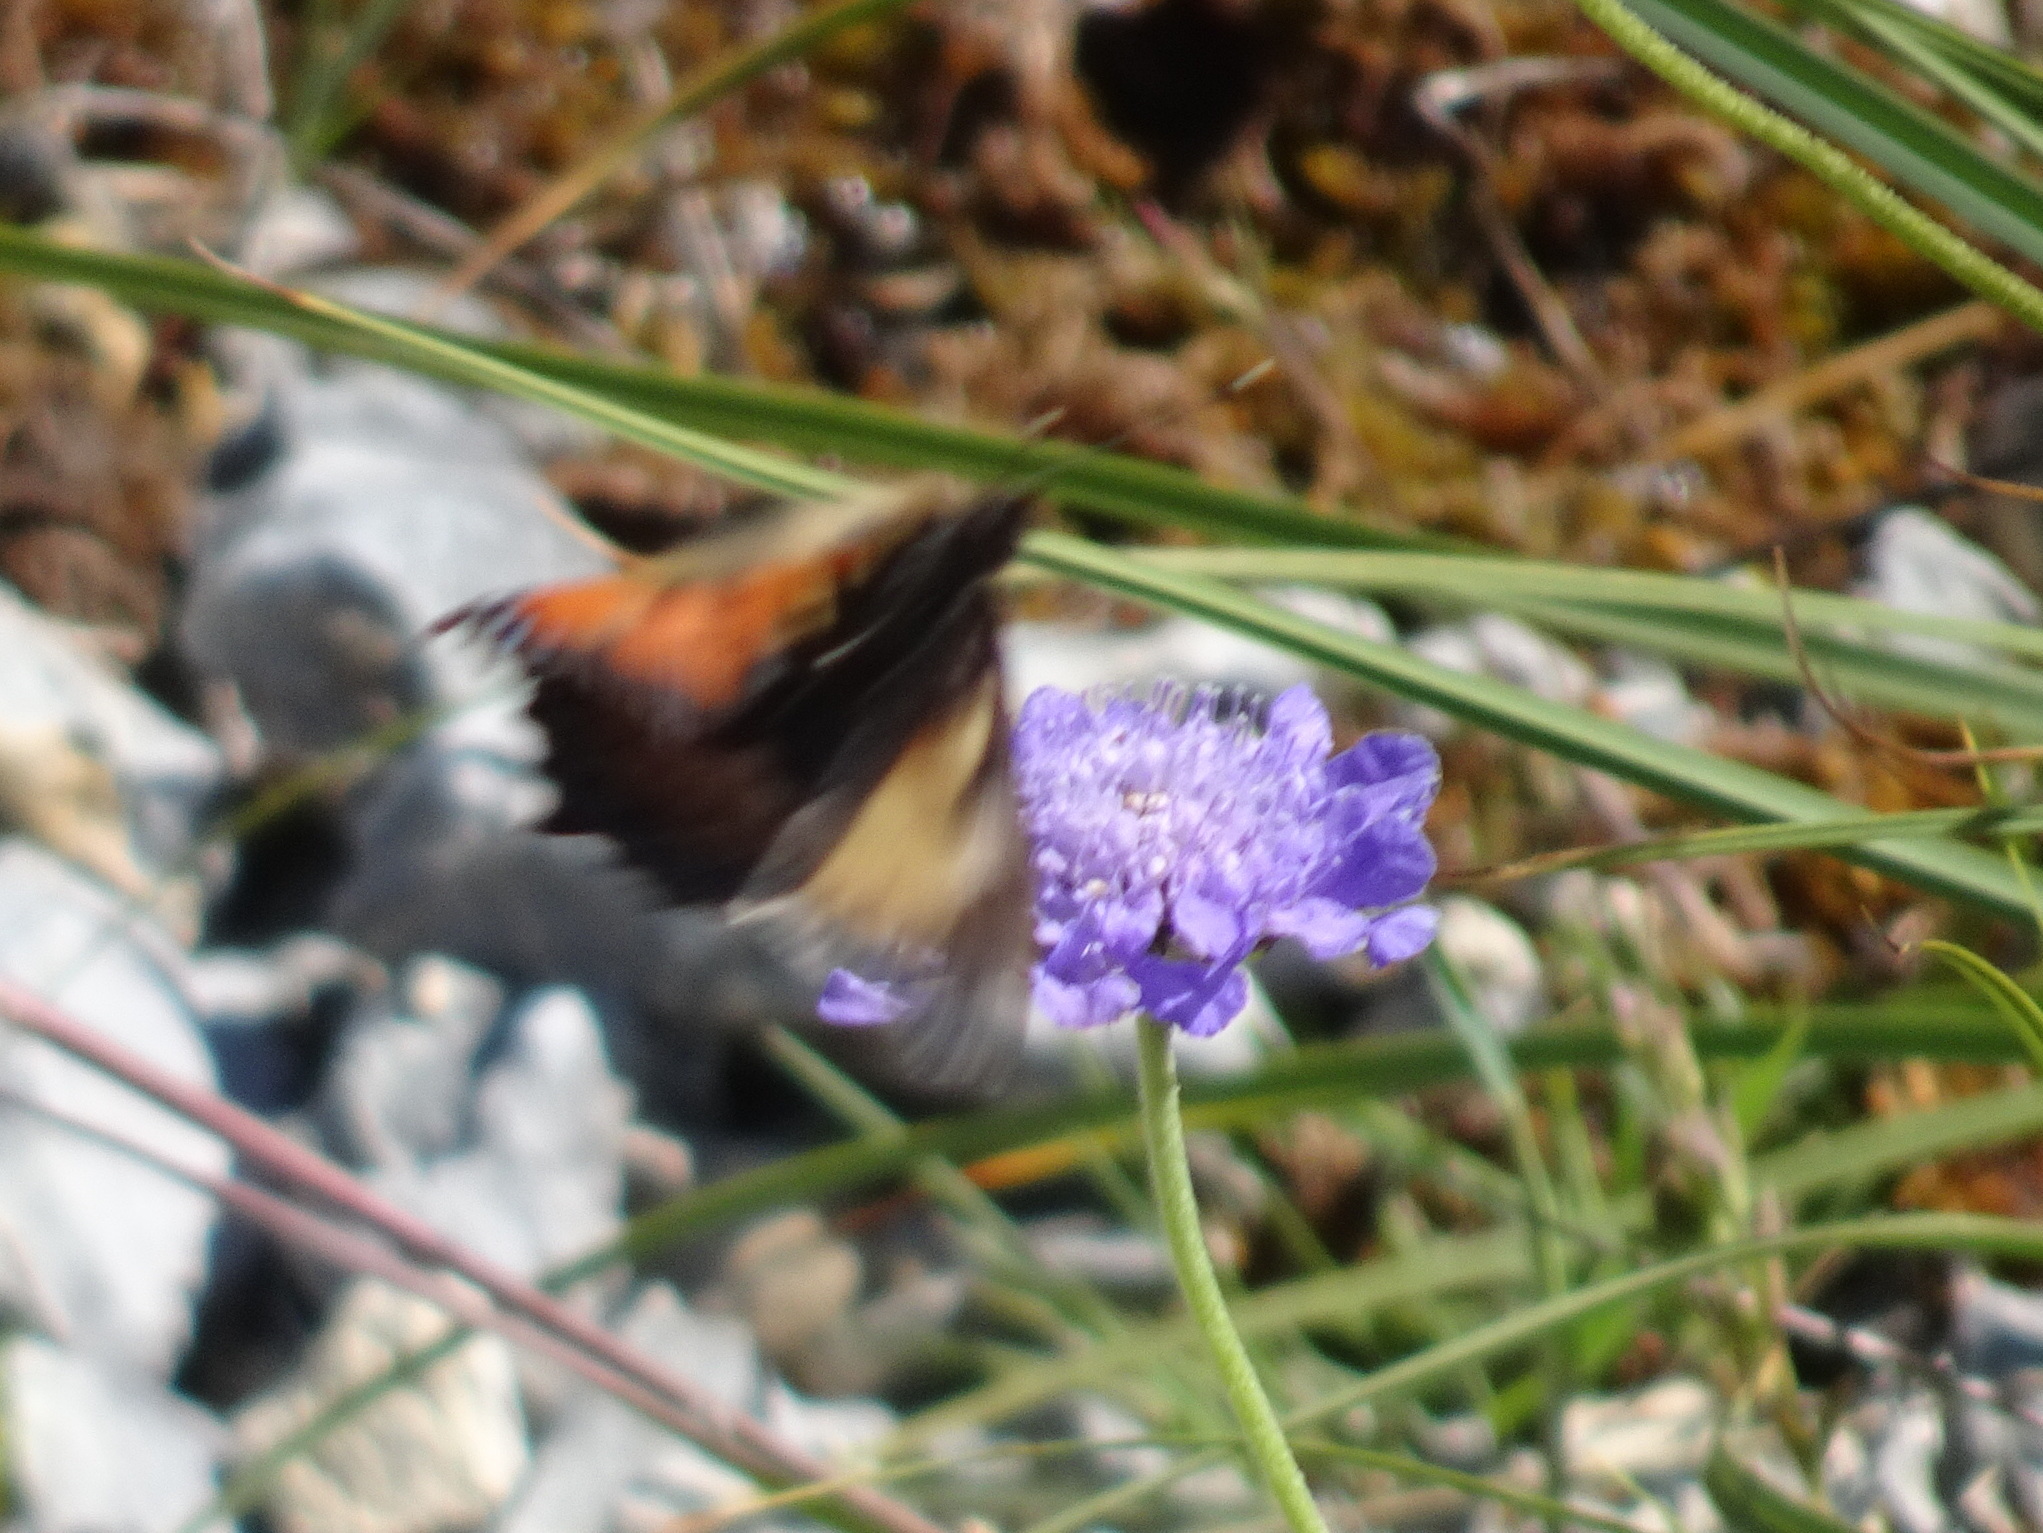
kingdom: Animalia
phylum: Arthropoda
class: Insecta
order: Lepidoptera
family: Nymphalidae
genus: Aglais
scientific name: Aglais urticae
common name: Small tortoiseshell
